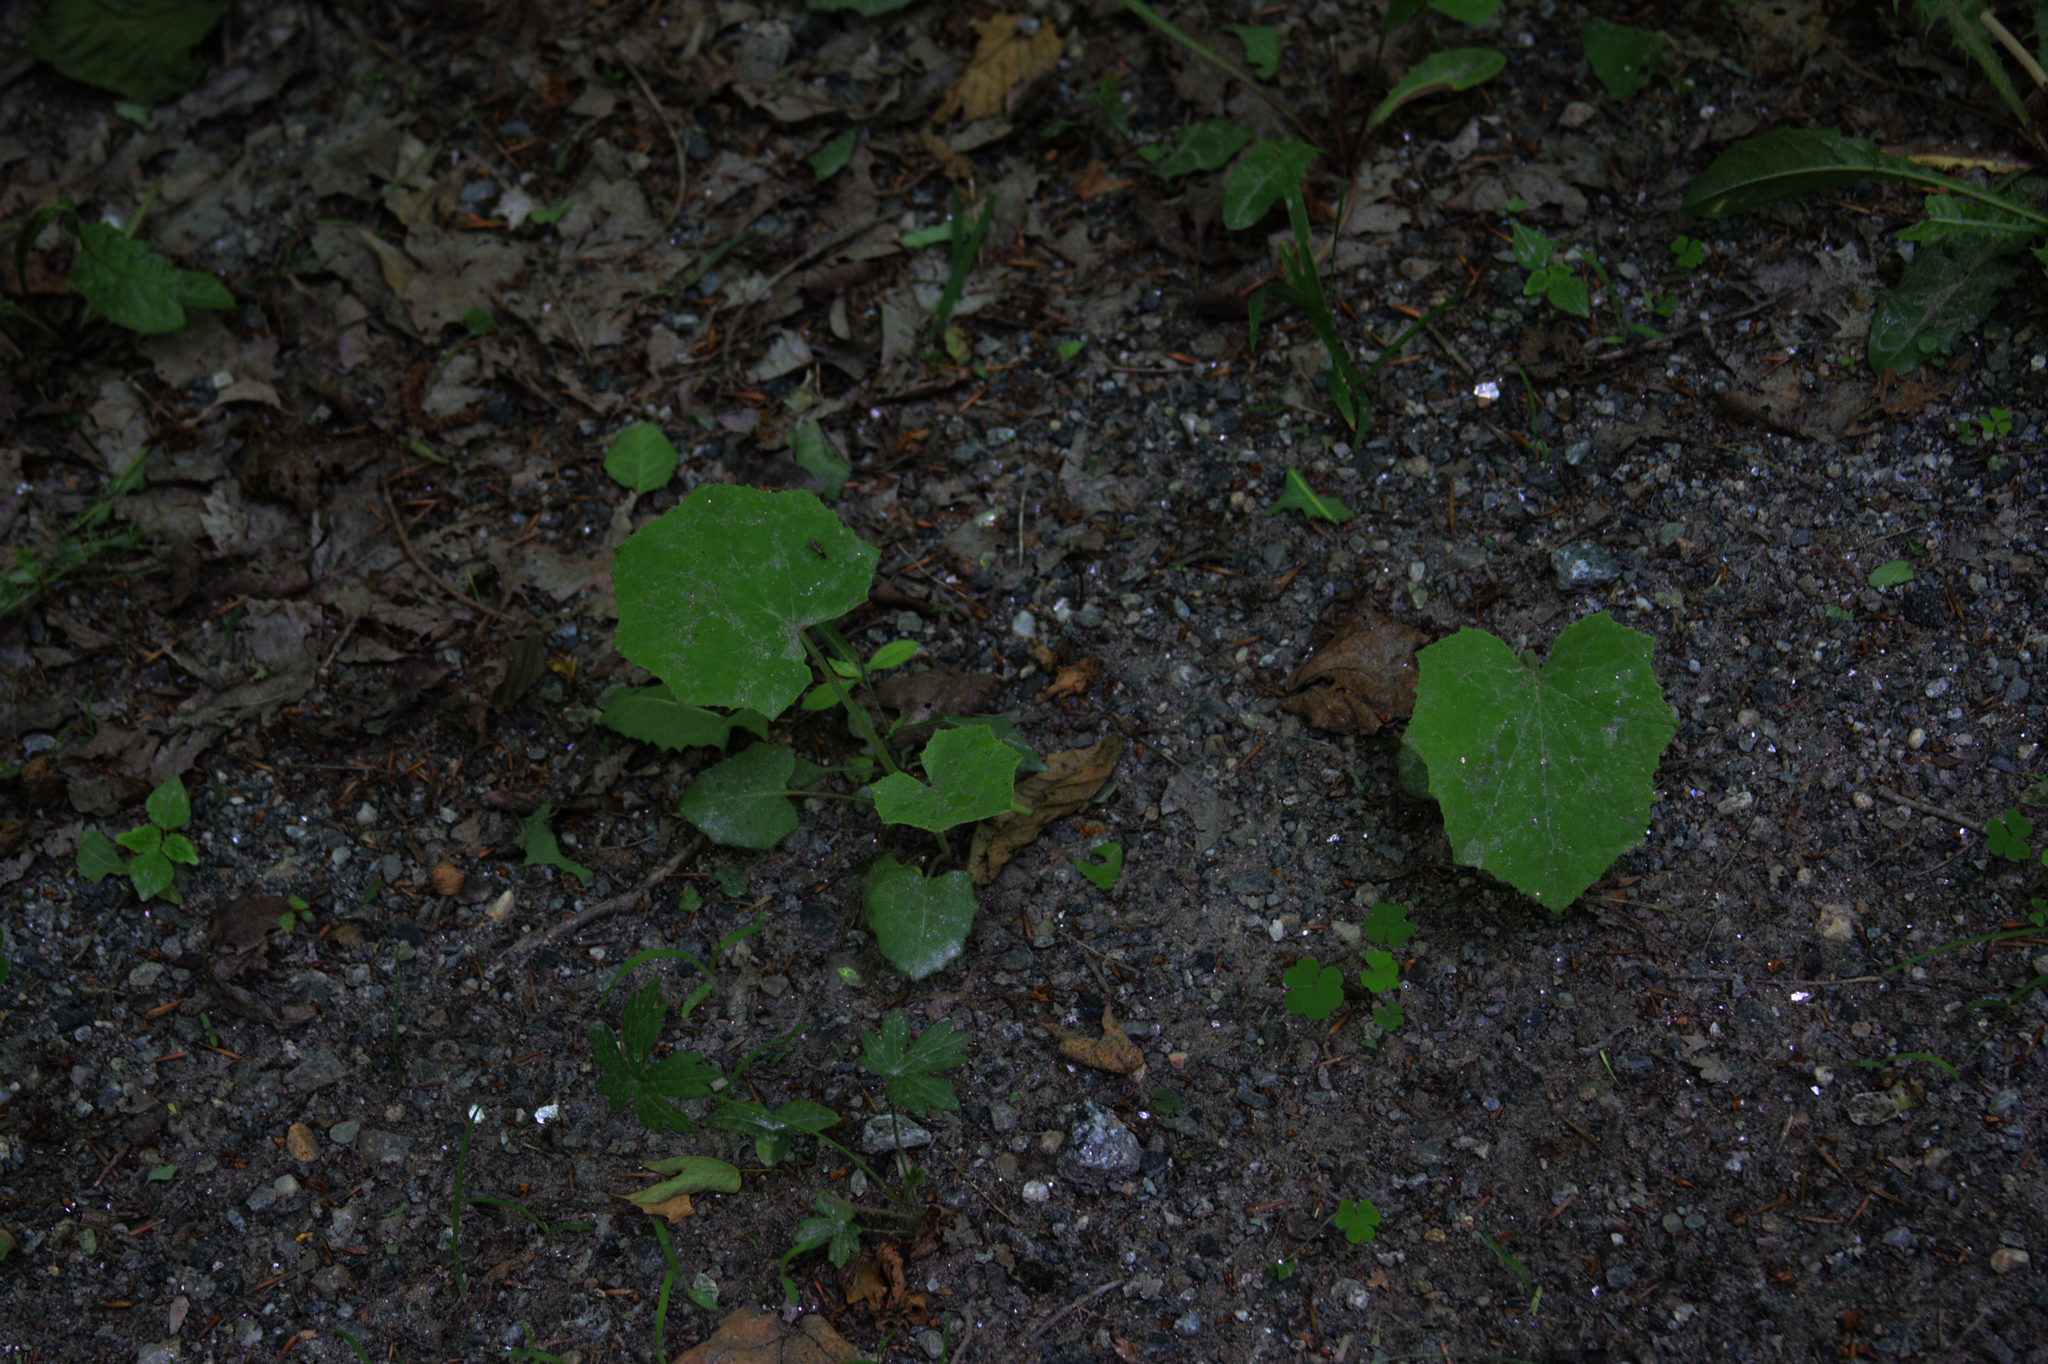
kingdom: Plantae
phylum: Tracheophyta
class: Magnoliopsida
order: Asterales
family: Asteraceae
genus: Tussilago
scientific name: Tussilago farfara
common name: Coltsfoot
